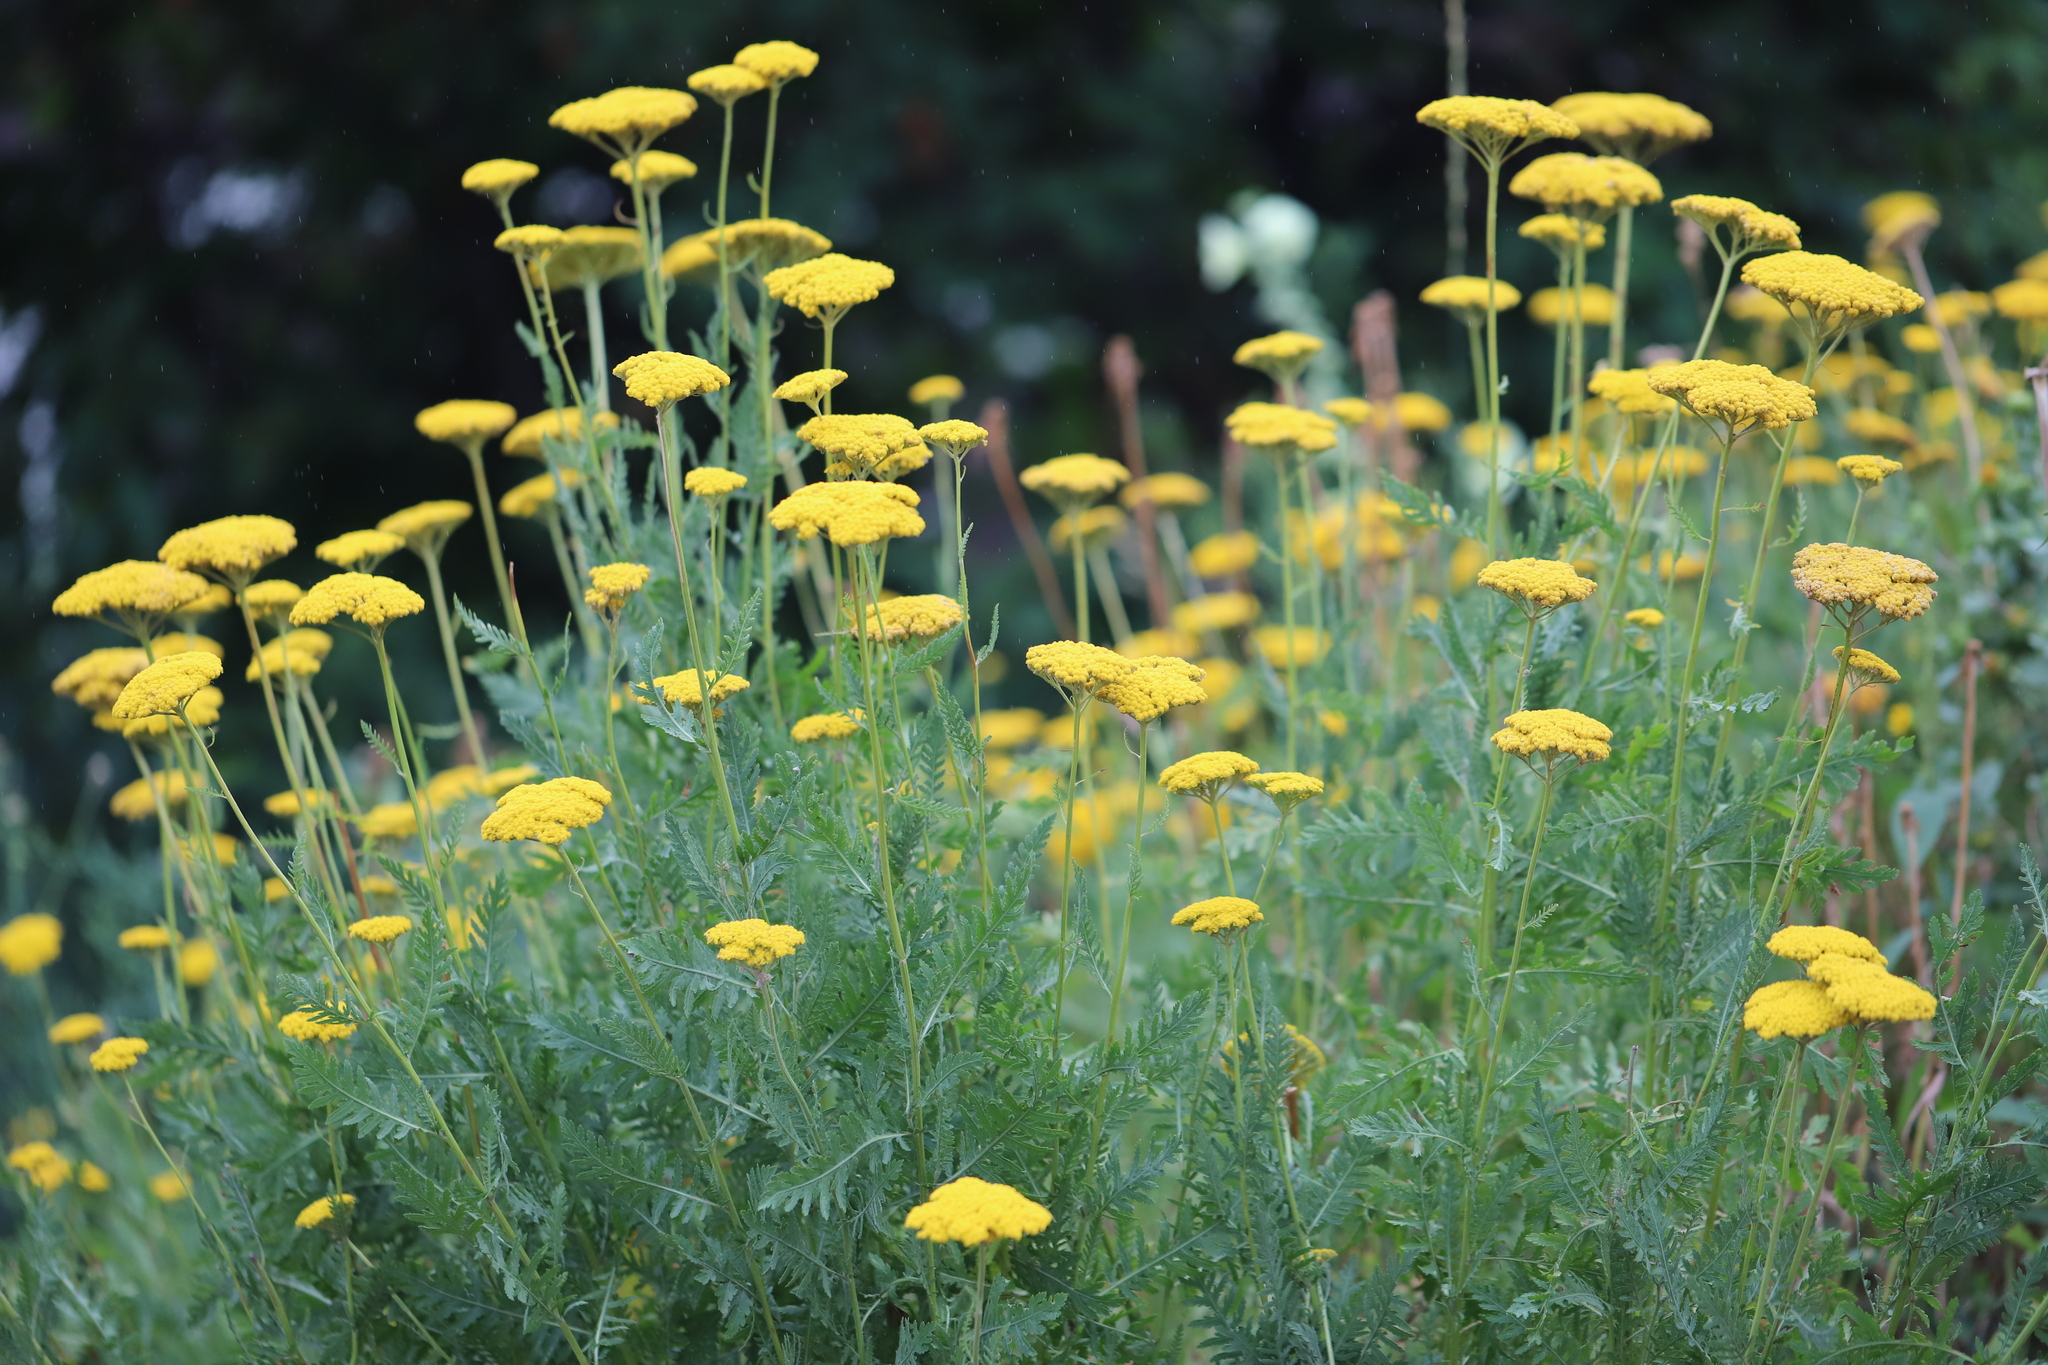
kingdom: Plantae
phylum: Tracheophyta
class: Magnoliopsida
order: Asterales
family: Asteraceae
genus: Achillea
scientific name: Achillea filipendulina
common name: Fernleaf yarrow
